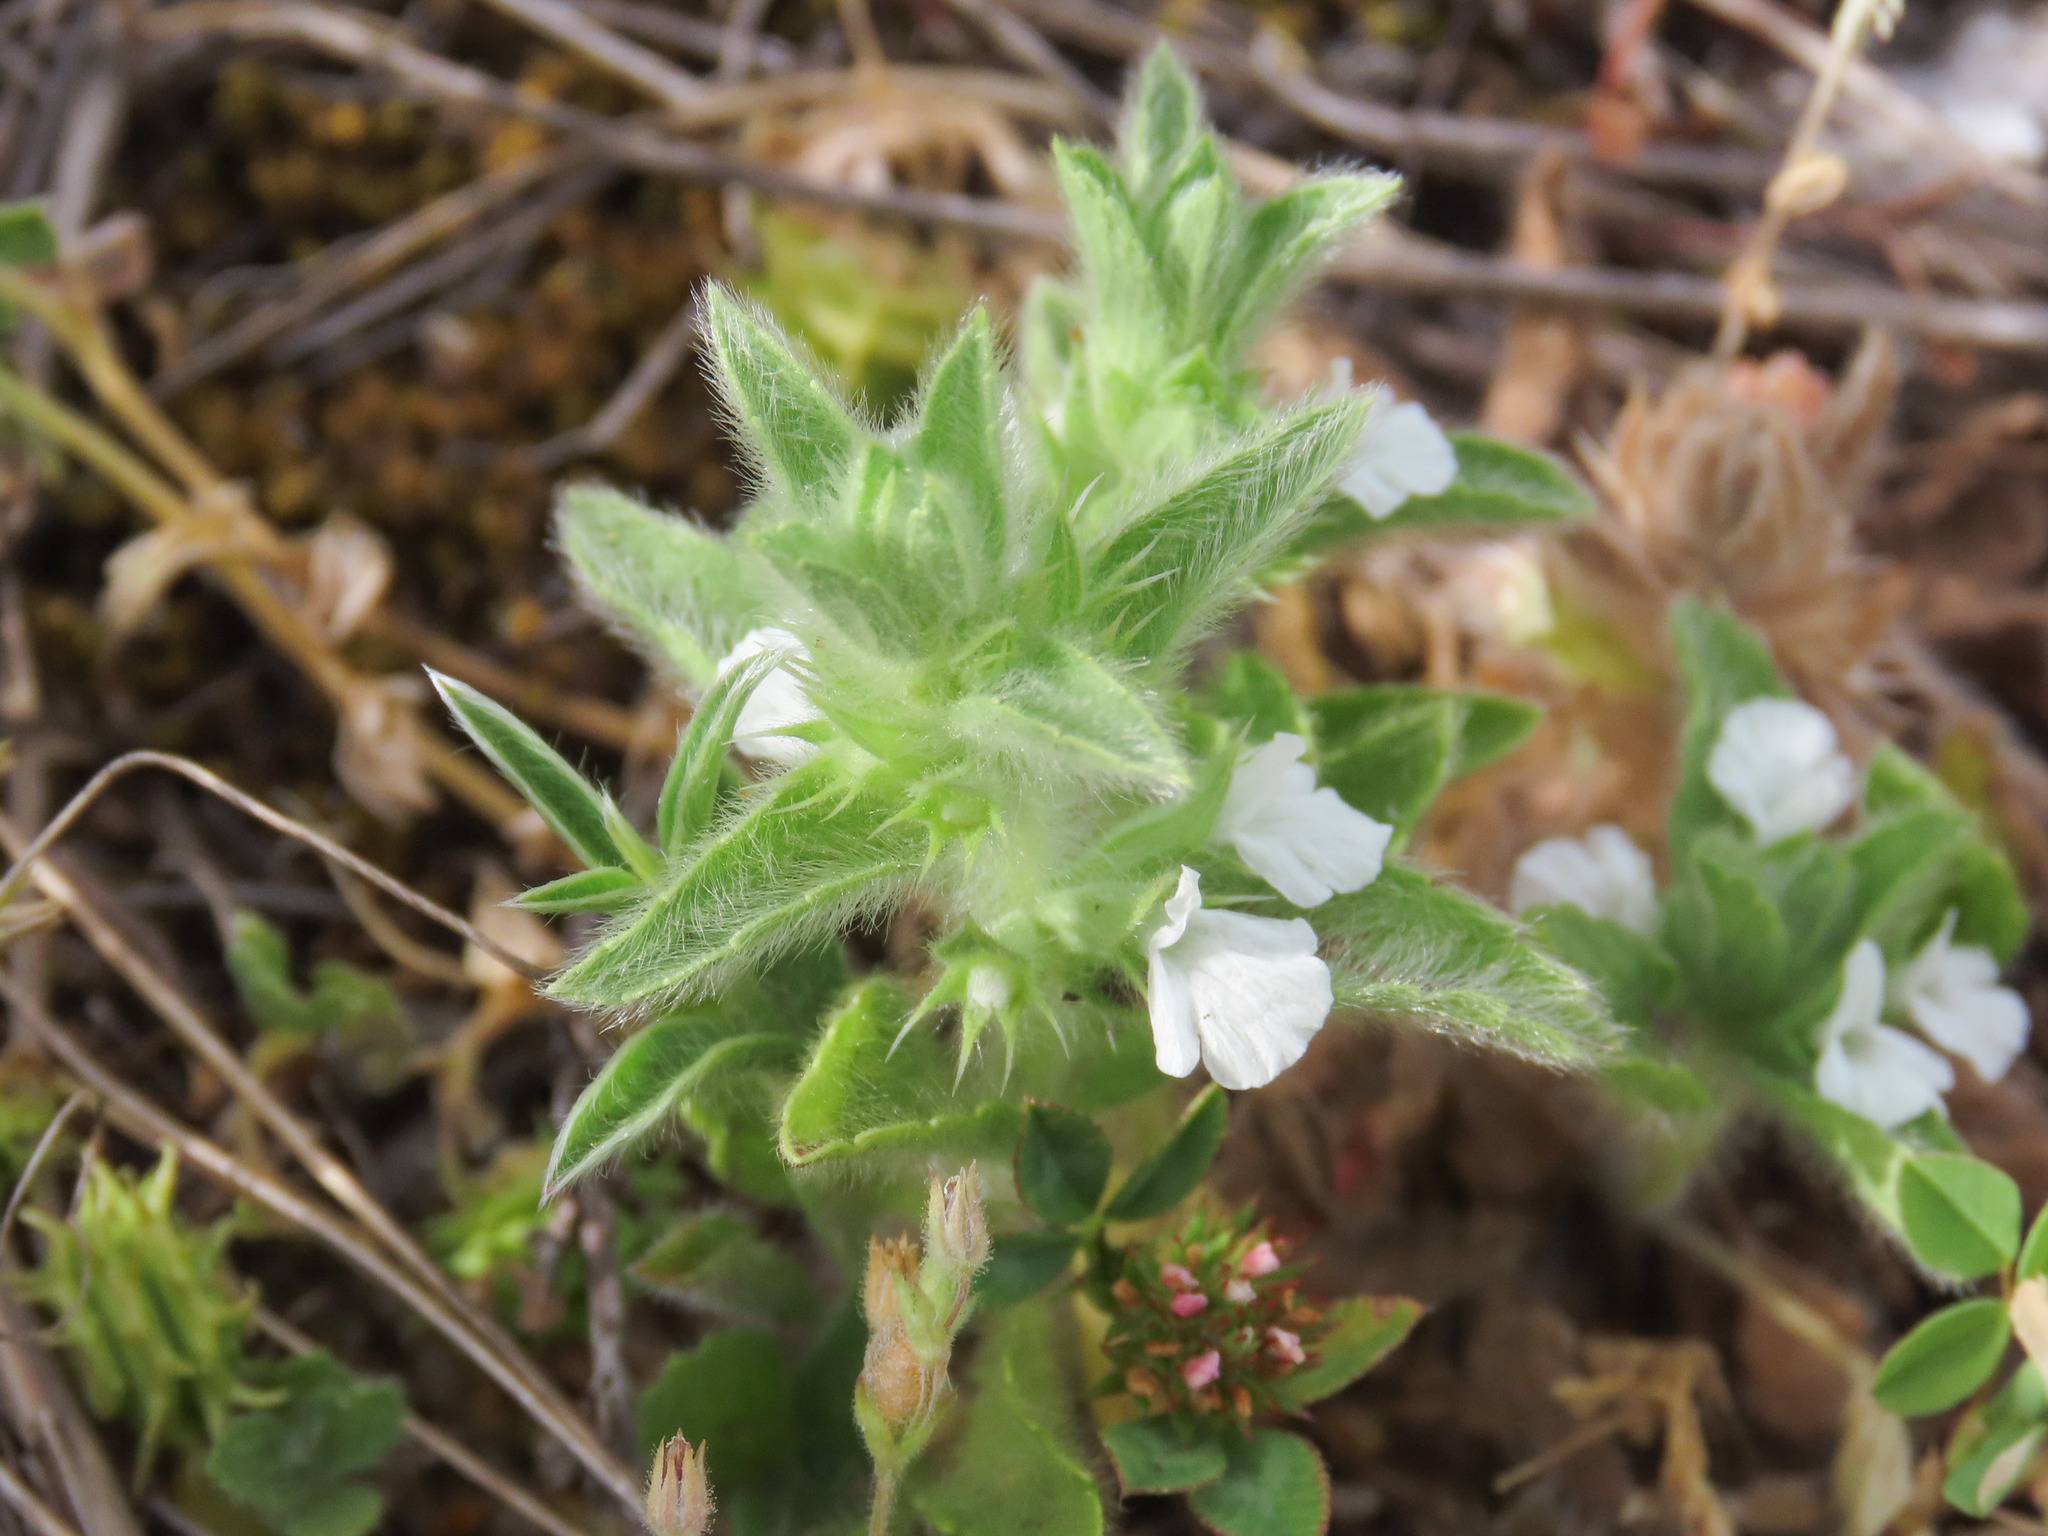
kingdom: Plantae
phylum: Tracheophyta
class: Magnoliopsida
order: Lamiales
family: Lamiaceae
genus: Sideritis
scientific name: Sideritis romana
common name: Simplebeak ironwort
